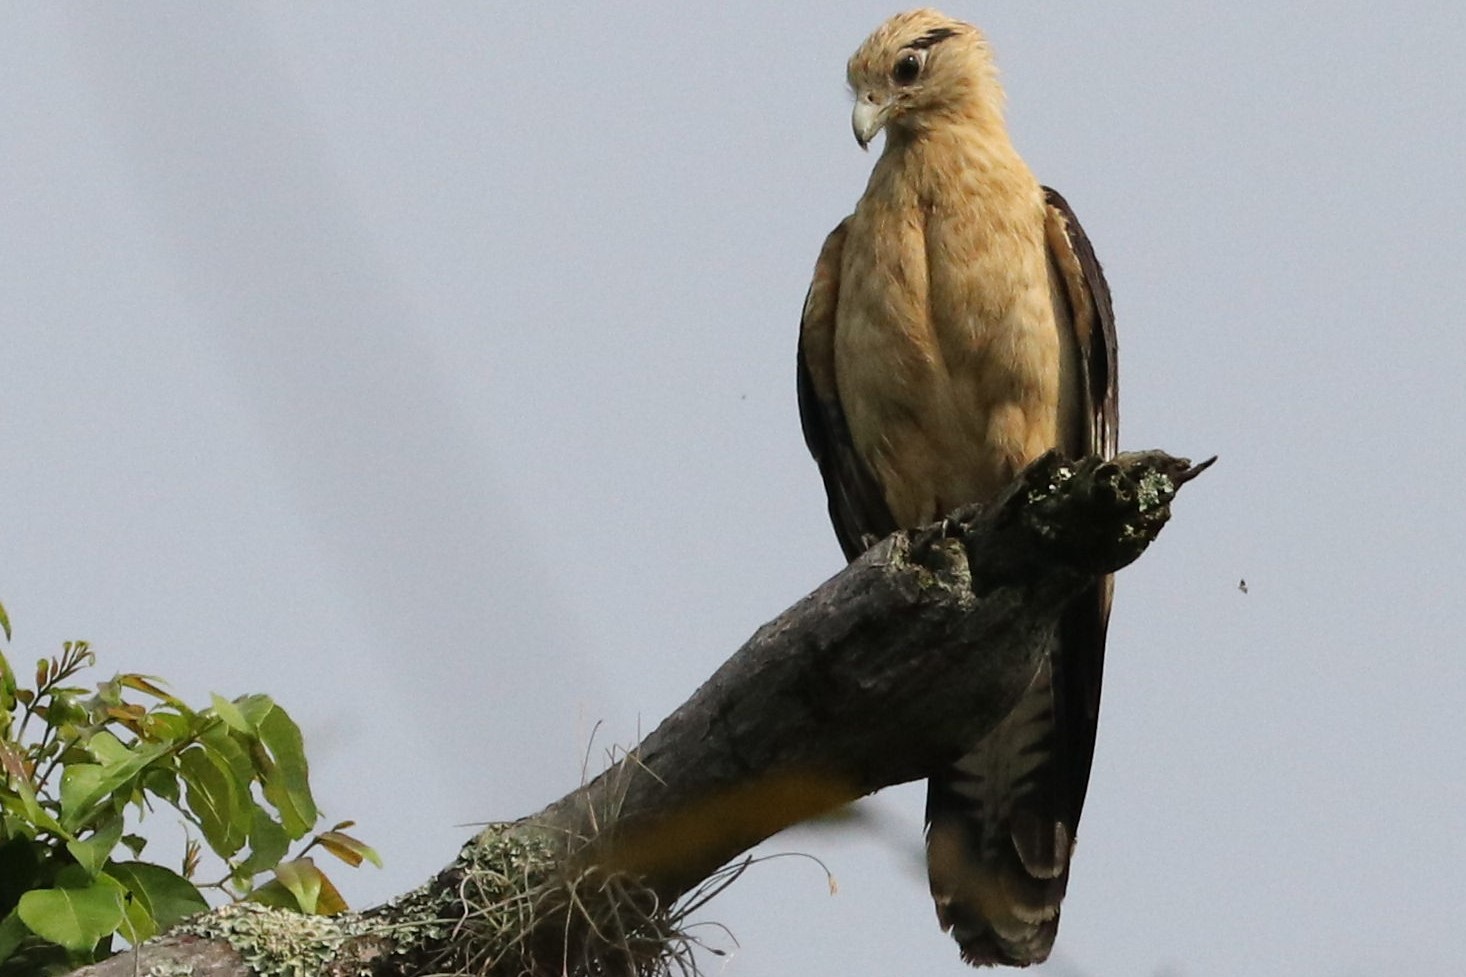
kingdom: Animalia
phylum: Chordata
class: Aves
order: Falconiformes
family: Falconidae
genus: Daptrius
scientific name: Daptrius
